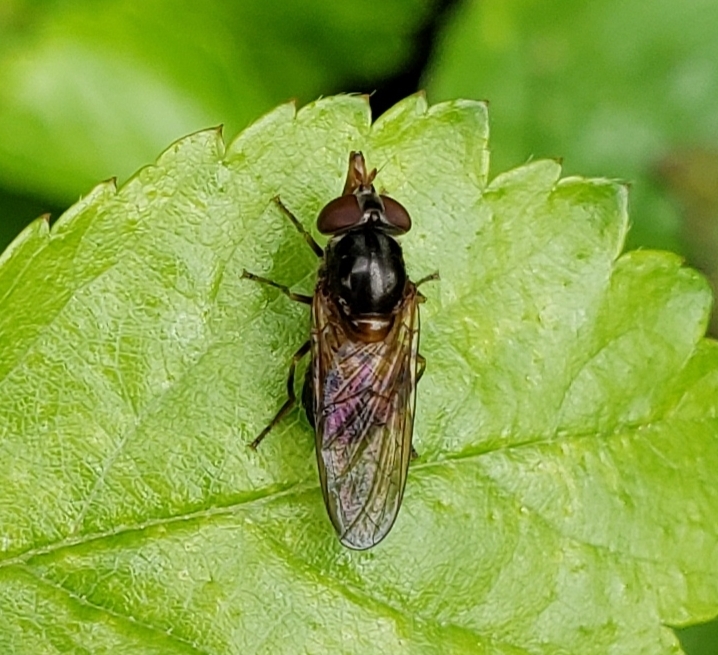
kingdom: Animalia
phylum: Arthropoda
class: Insecta
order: Diptera
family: Syrphidae
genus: Rhingia
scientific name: Rhingia nasica
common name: American snout fly
